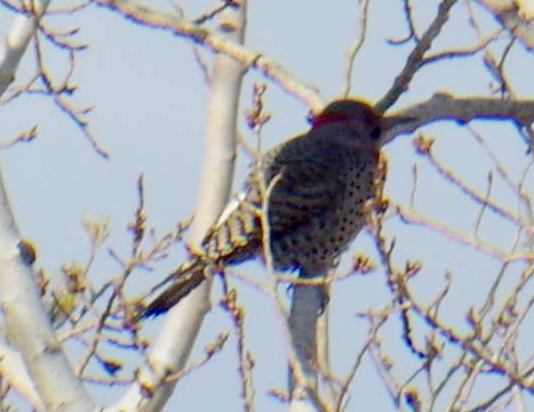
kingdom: Animalia
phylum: Chordata
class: Aves
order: Piciformes
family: Picidae
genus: Colaptes
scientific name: Colaptes auratus
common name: Northern flicker
